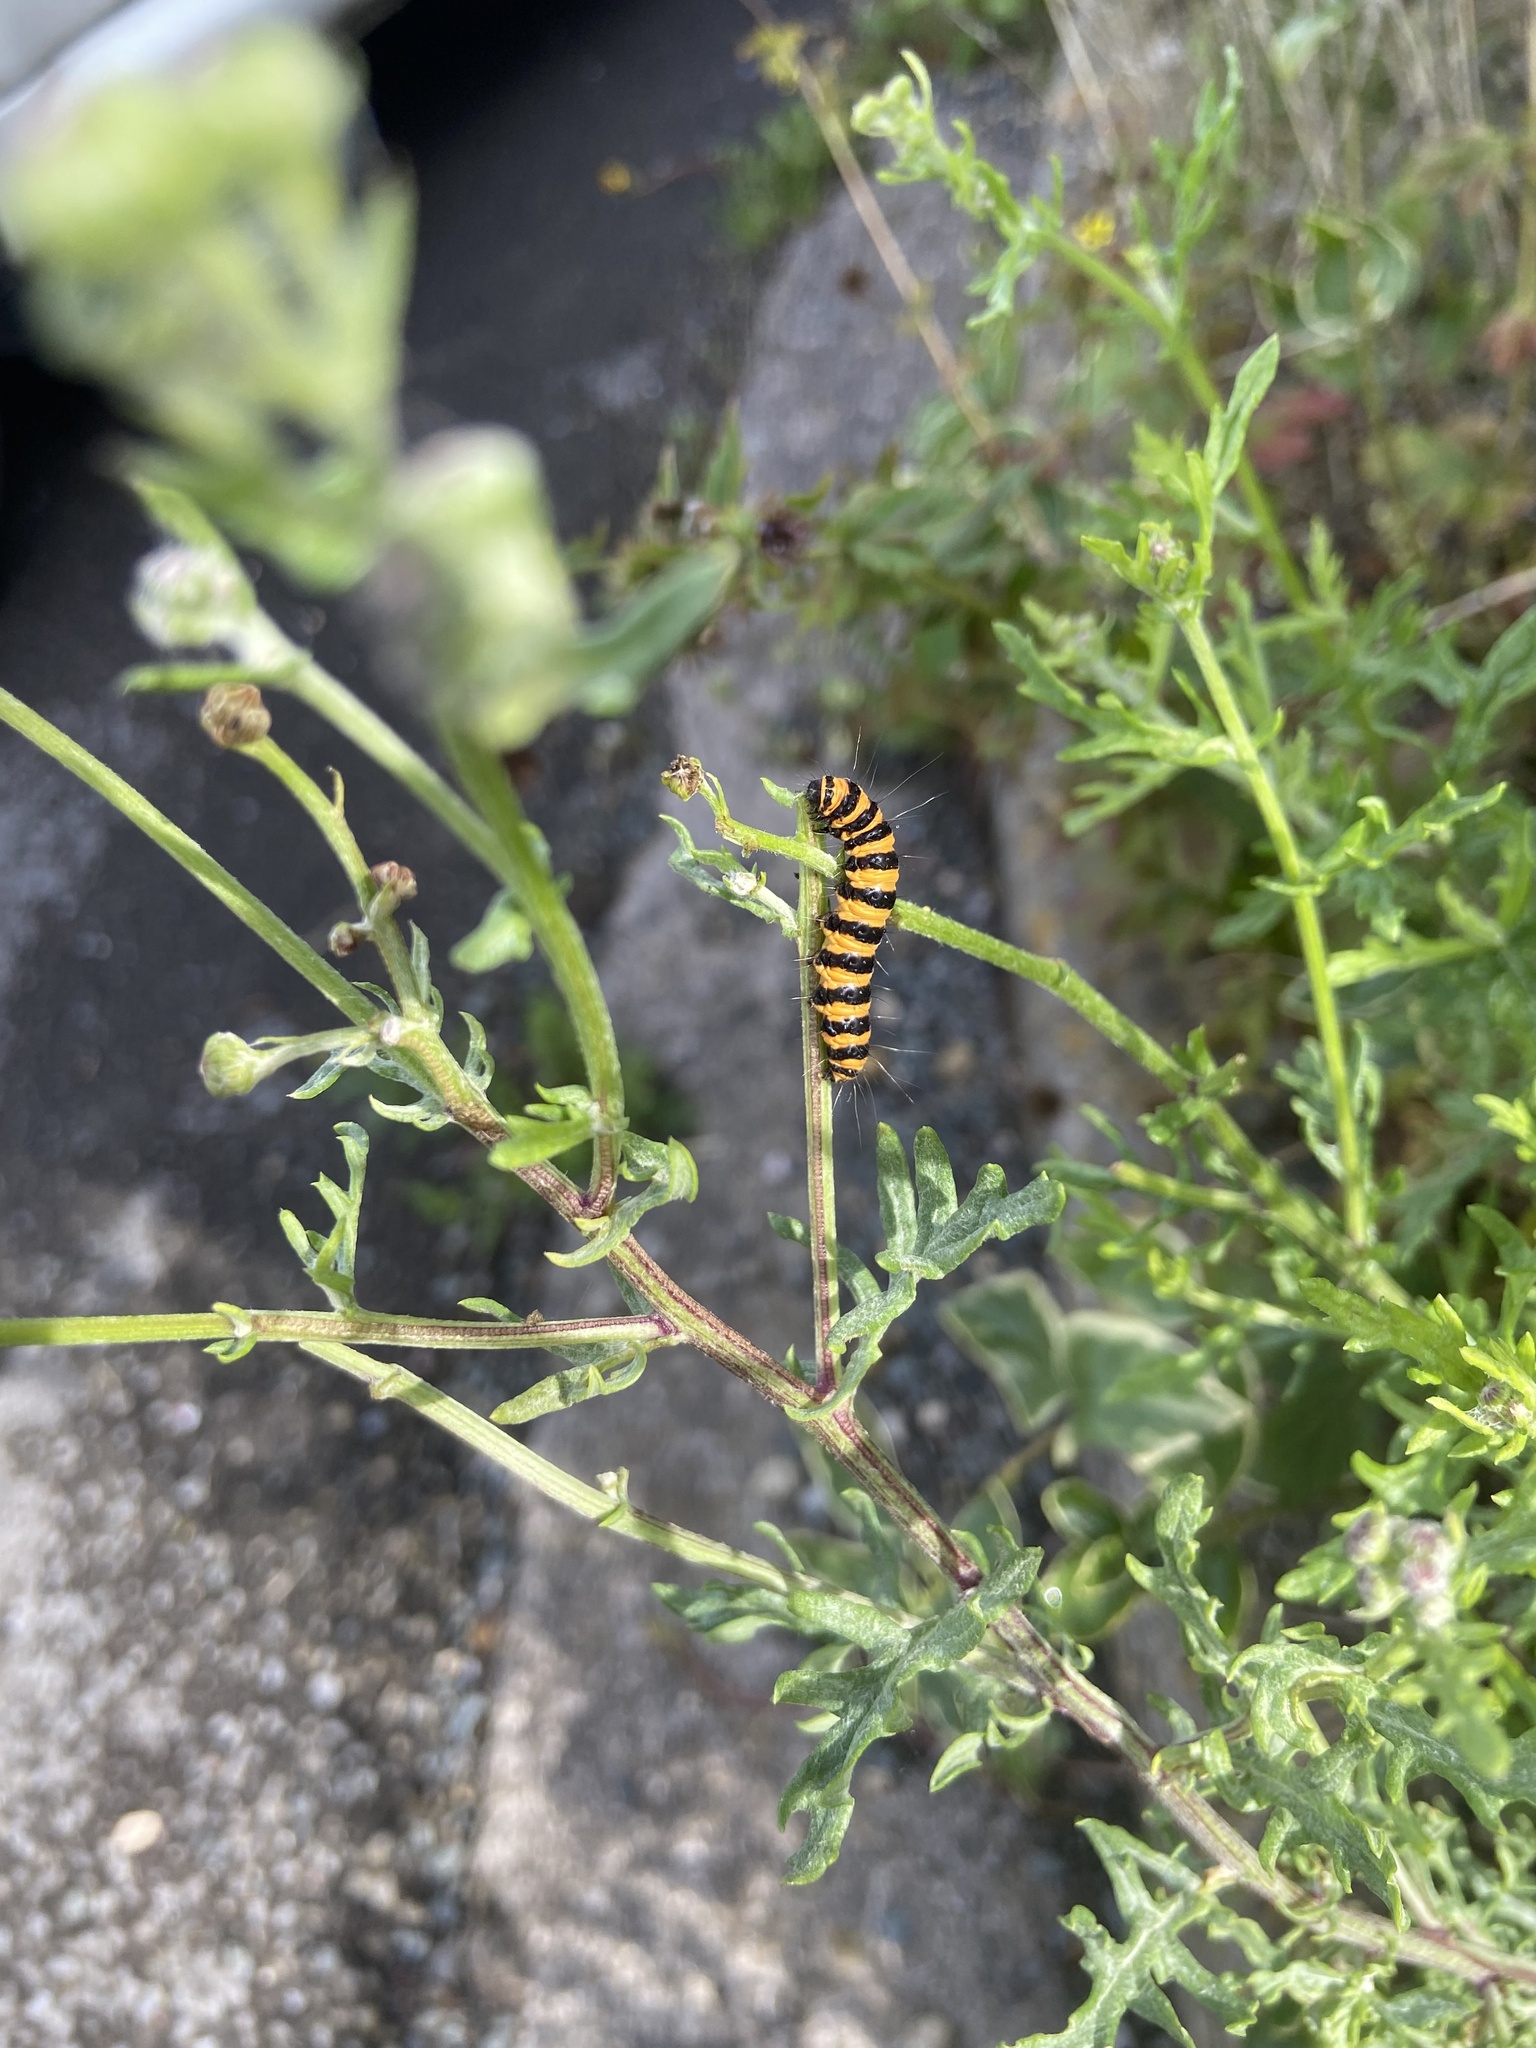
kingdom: Animalia
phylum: Arthropoda
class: Insecta
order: Lepidoptera
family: Erebidae
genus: Tyria
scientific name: Tyria jacobaeae
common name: Cinnabar
